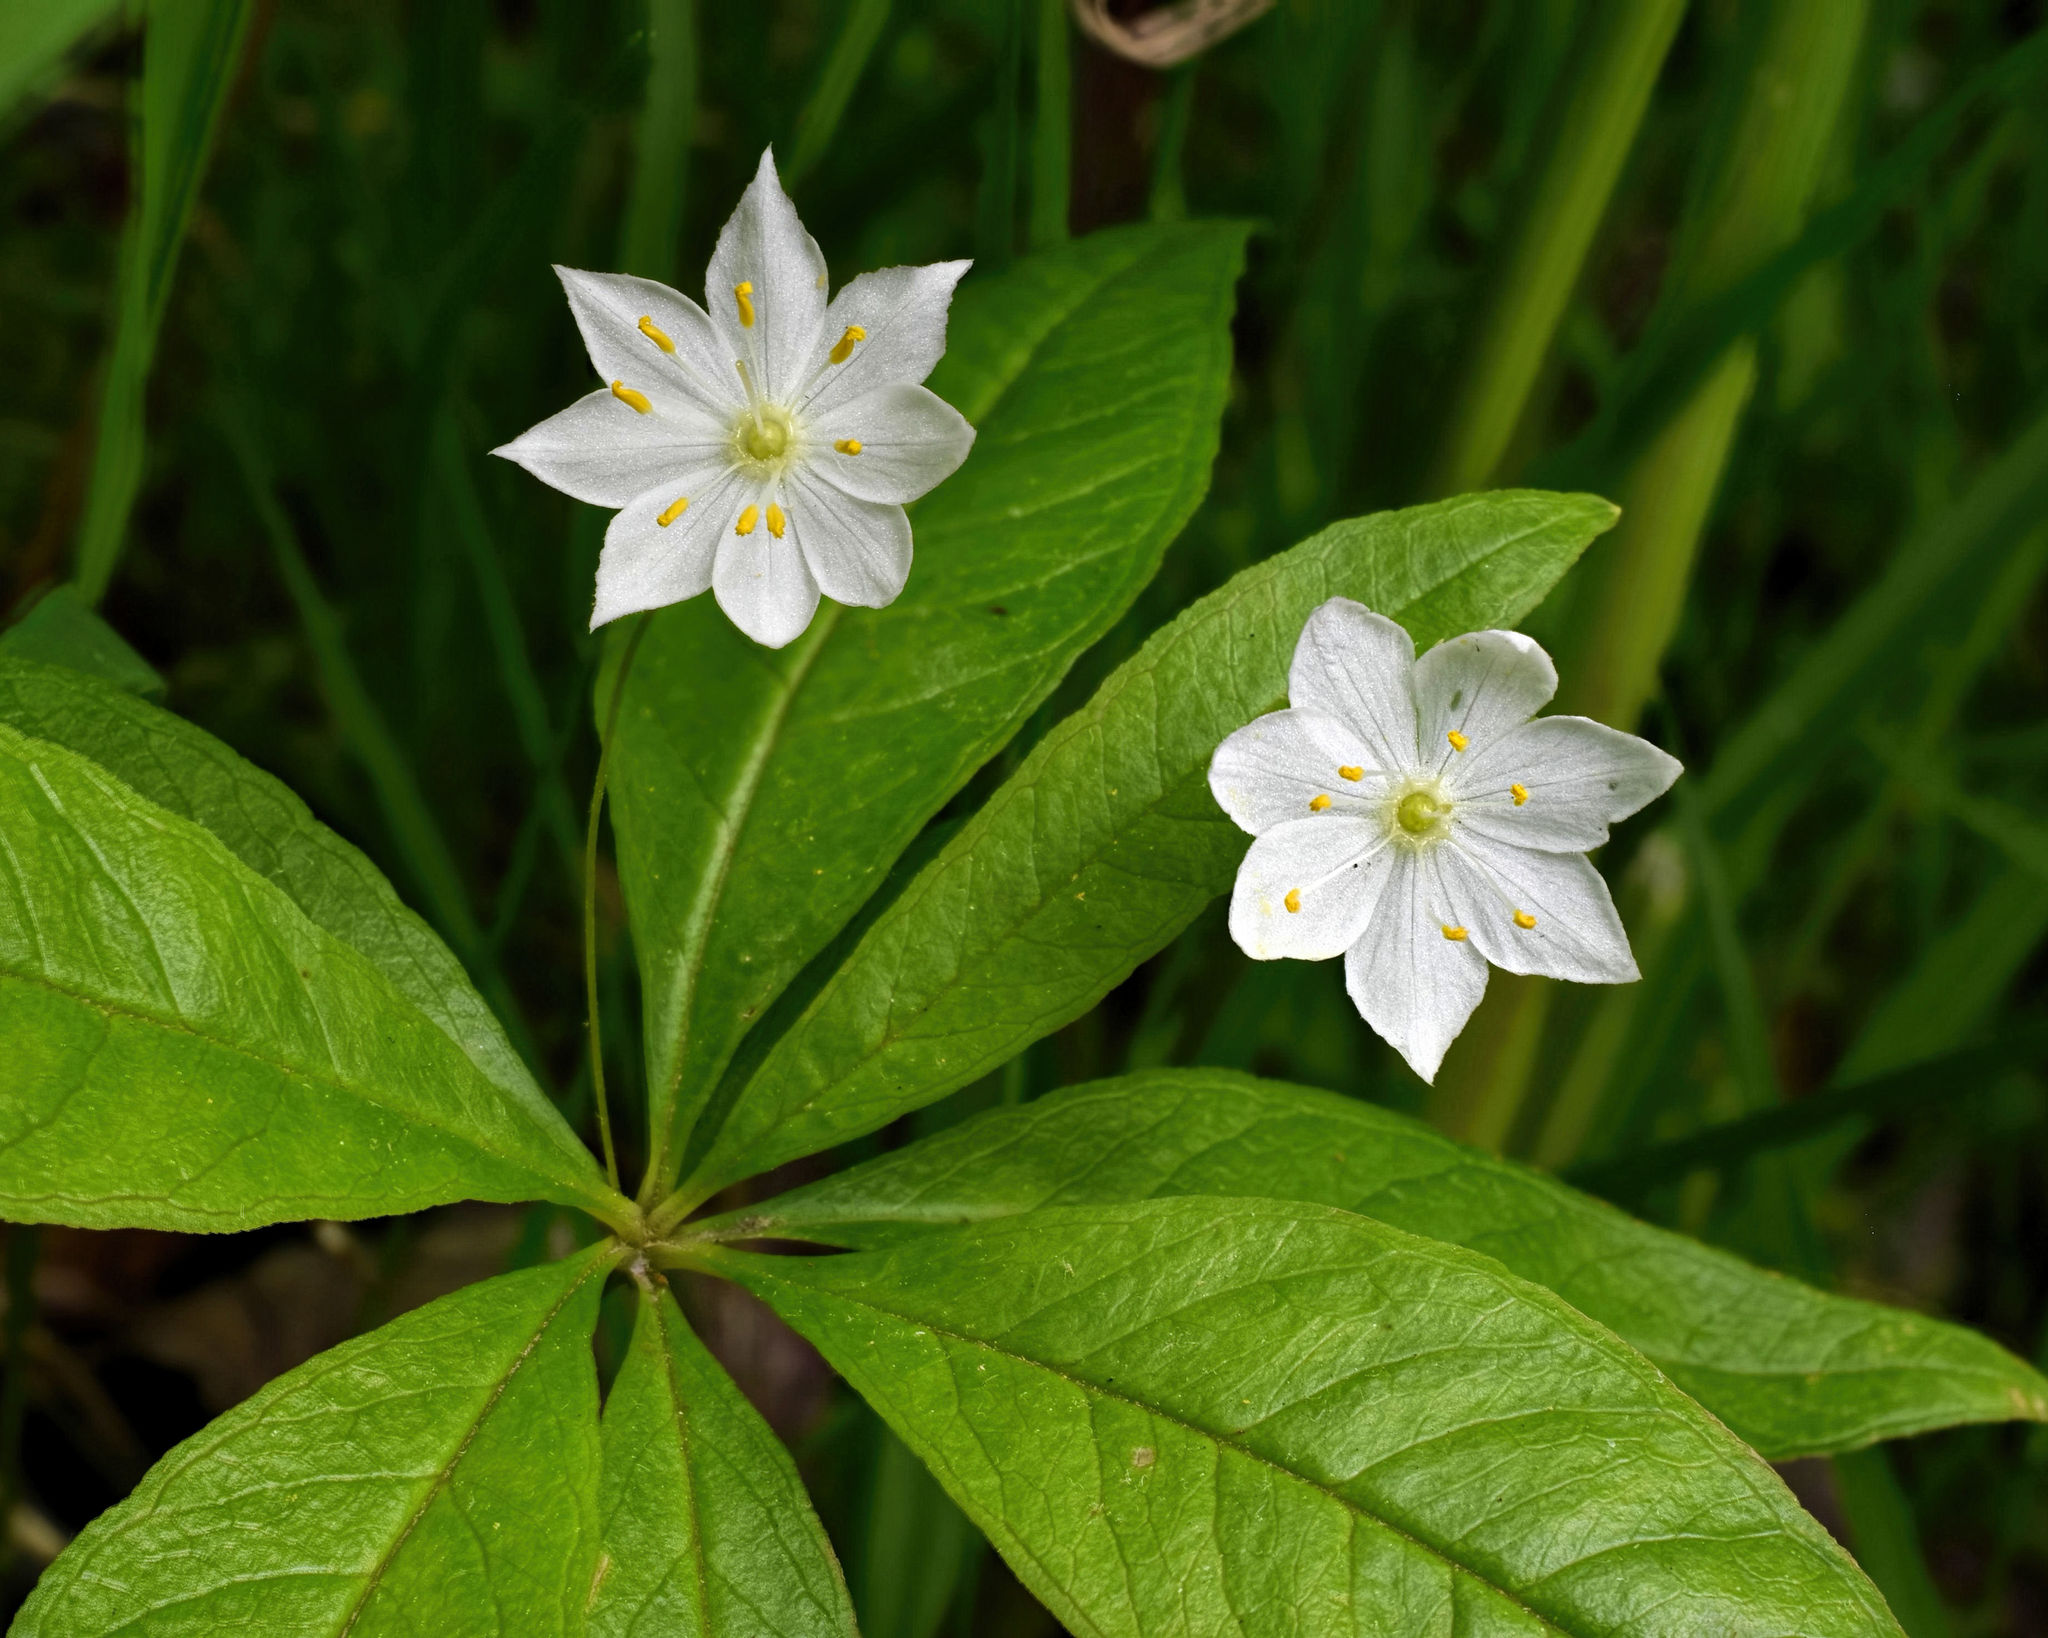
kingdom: Plantae
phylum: Tracheophyta
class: Magnoliopsida
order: Ericales
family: Primulaceae
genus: Lysimachia
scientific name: Lysimachia borealis
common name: American starflower
